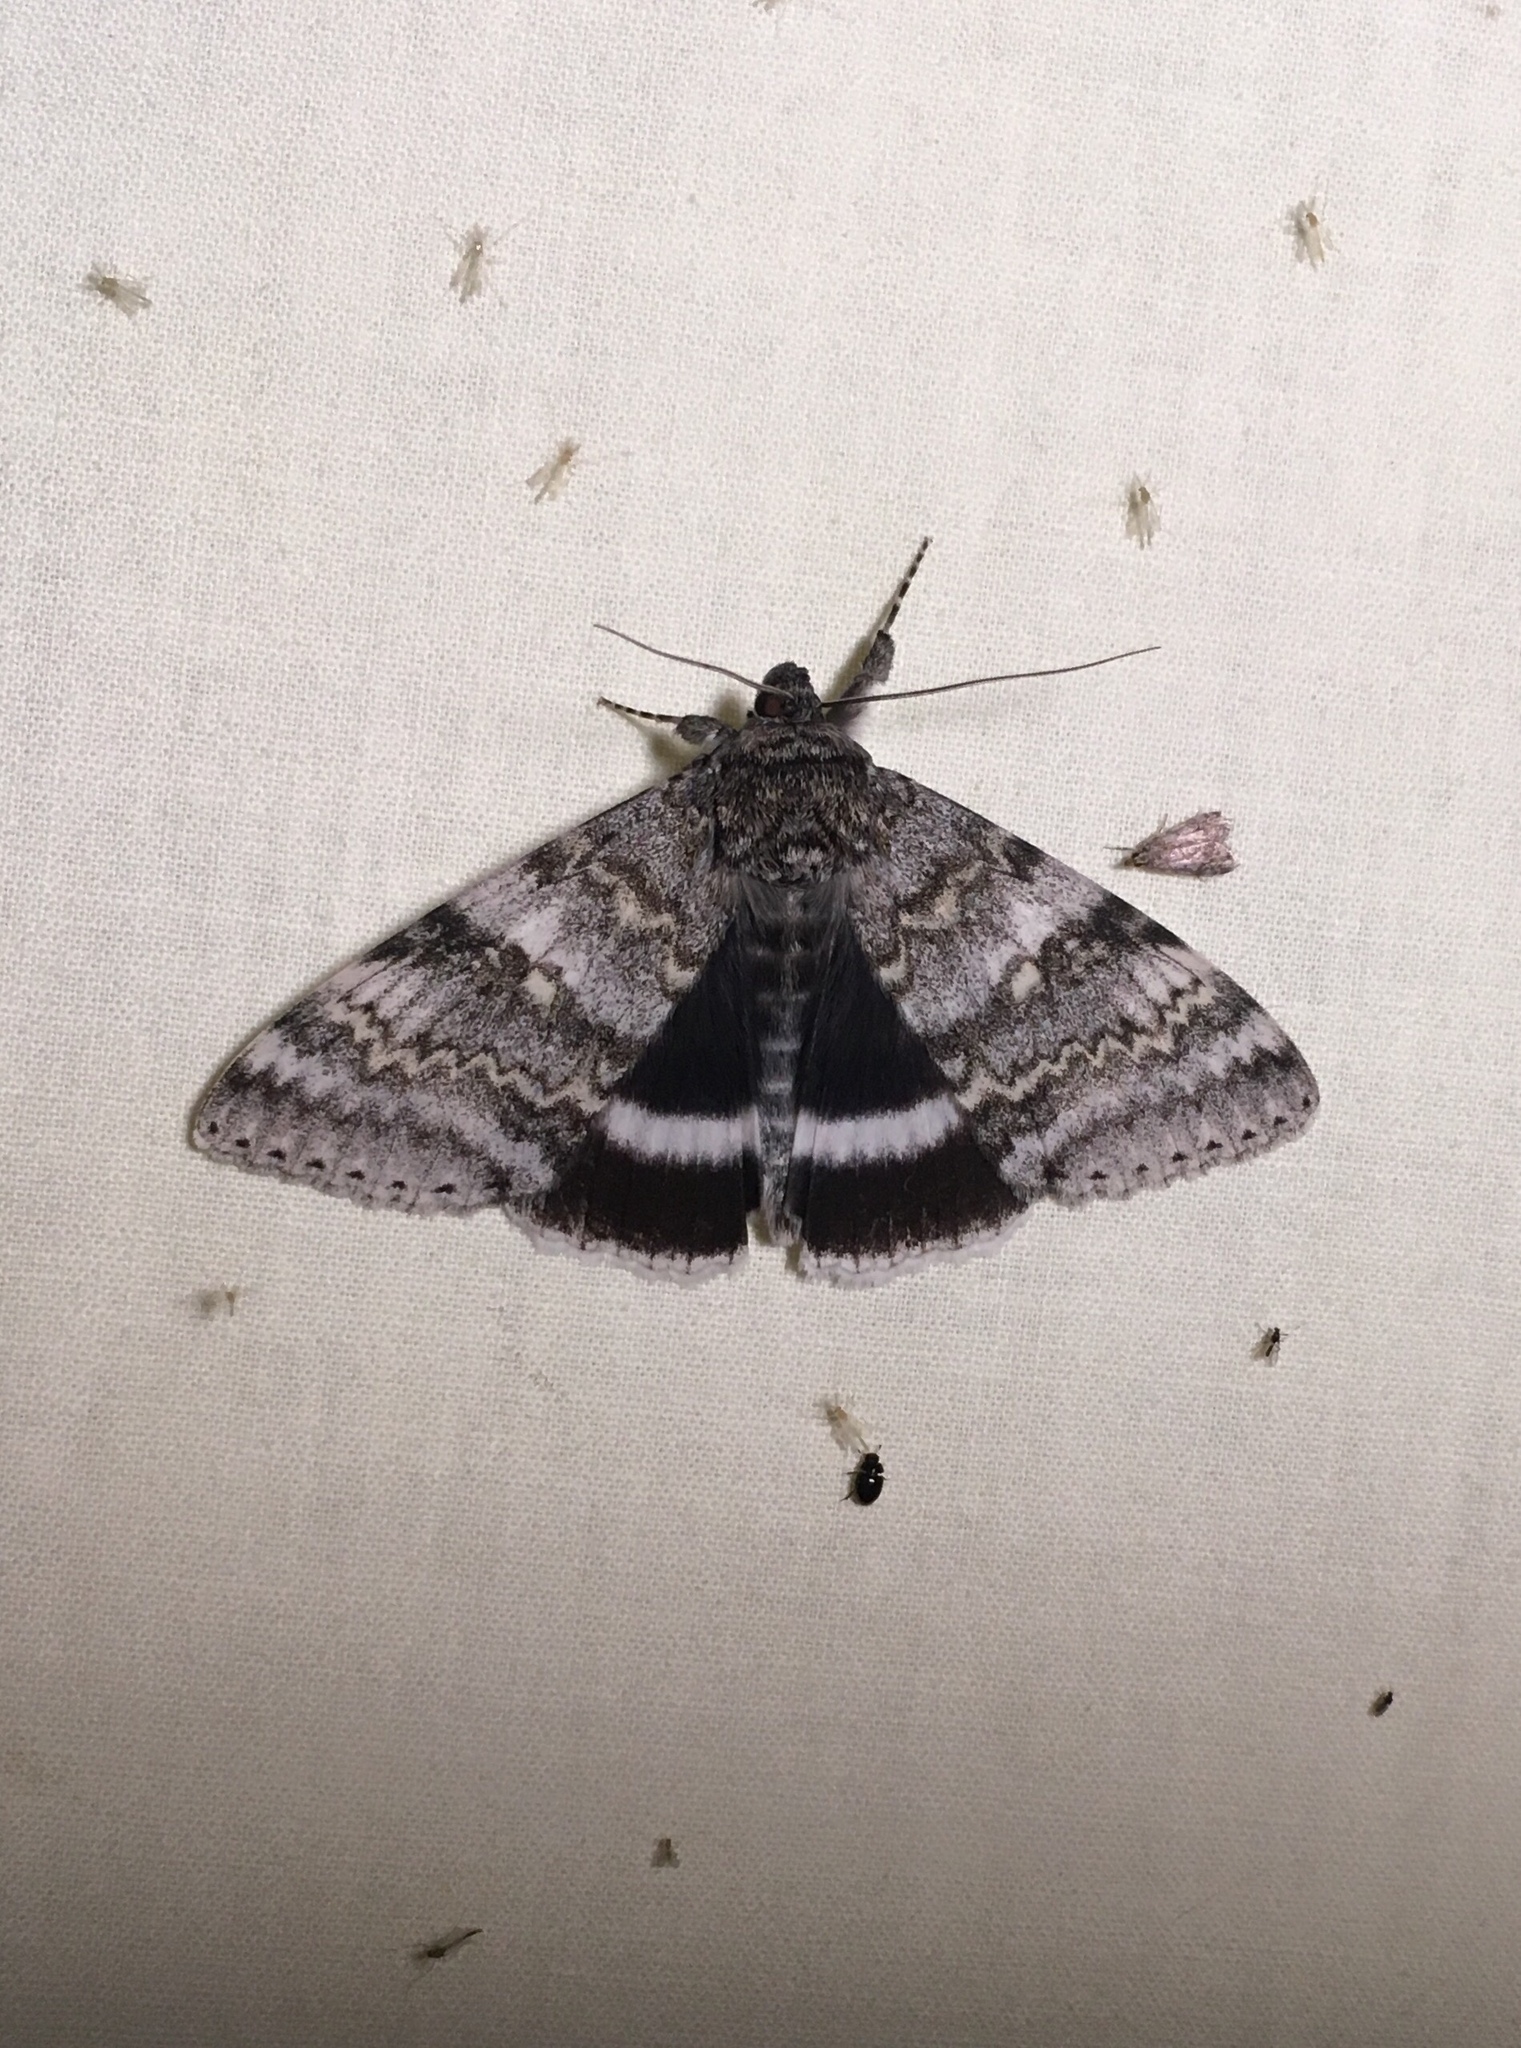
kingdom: Animalia
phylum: Arthropoda
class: Insecta
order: Lepidoptera
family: Erebidae
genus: Catocala
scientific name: Catocala relicta
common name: White underwing
